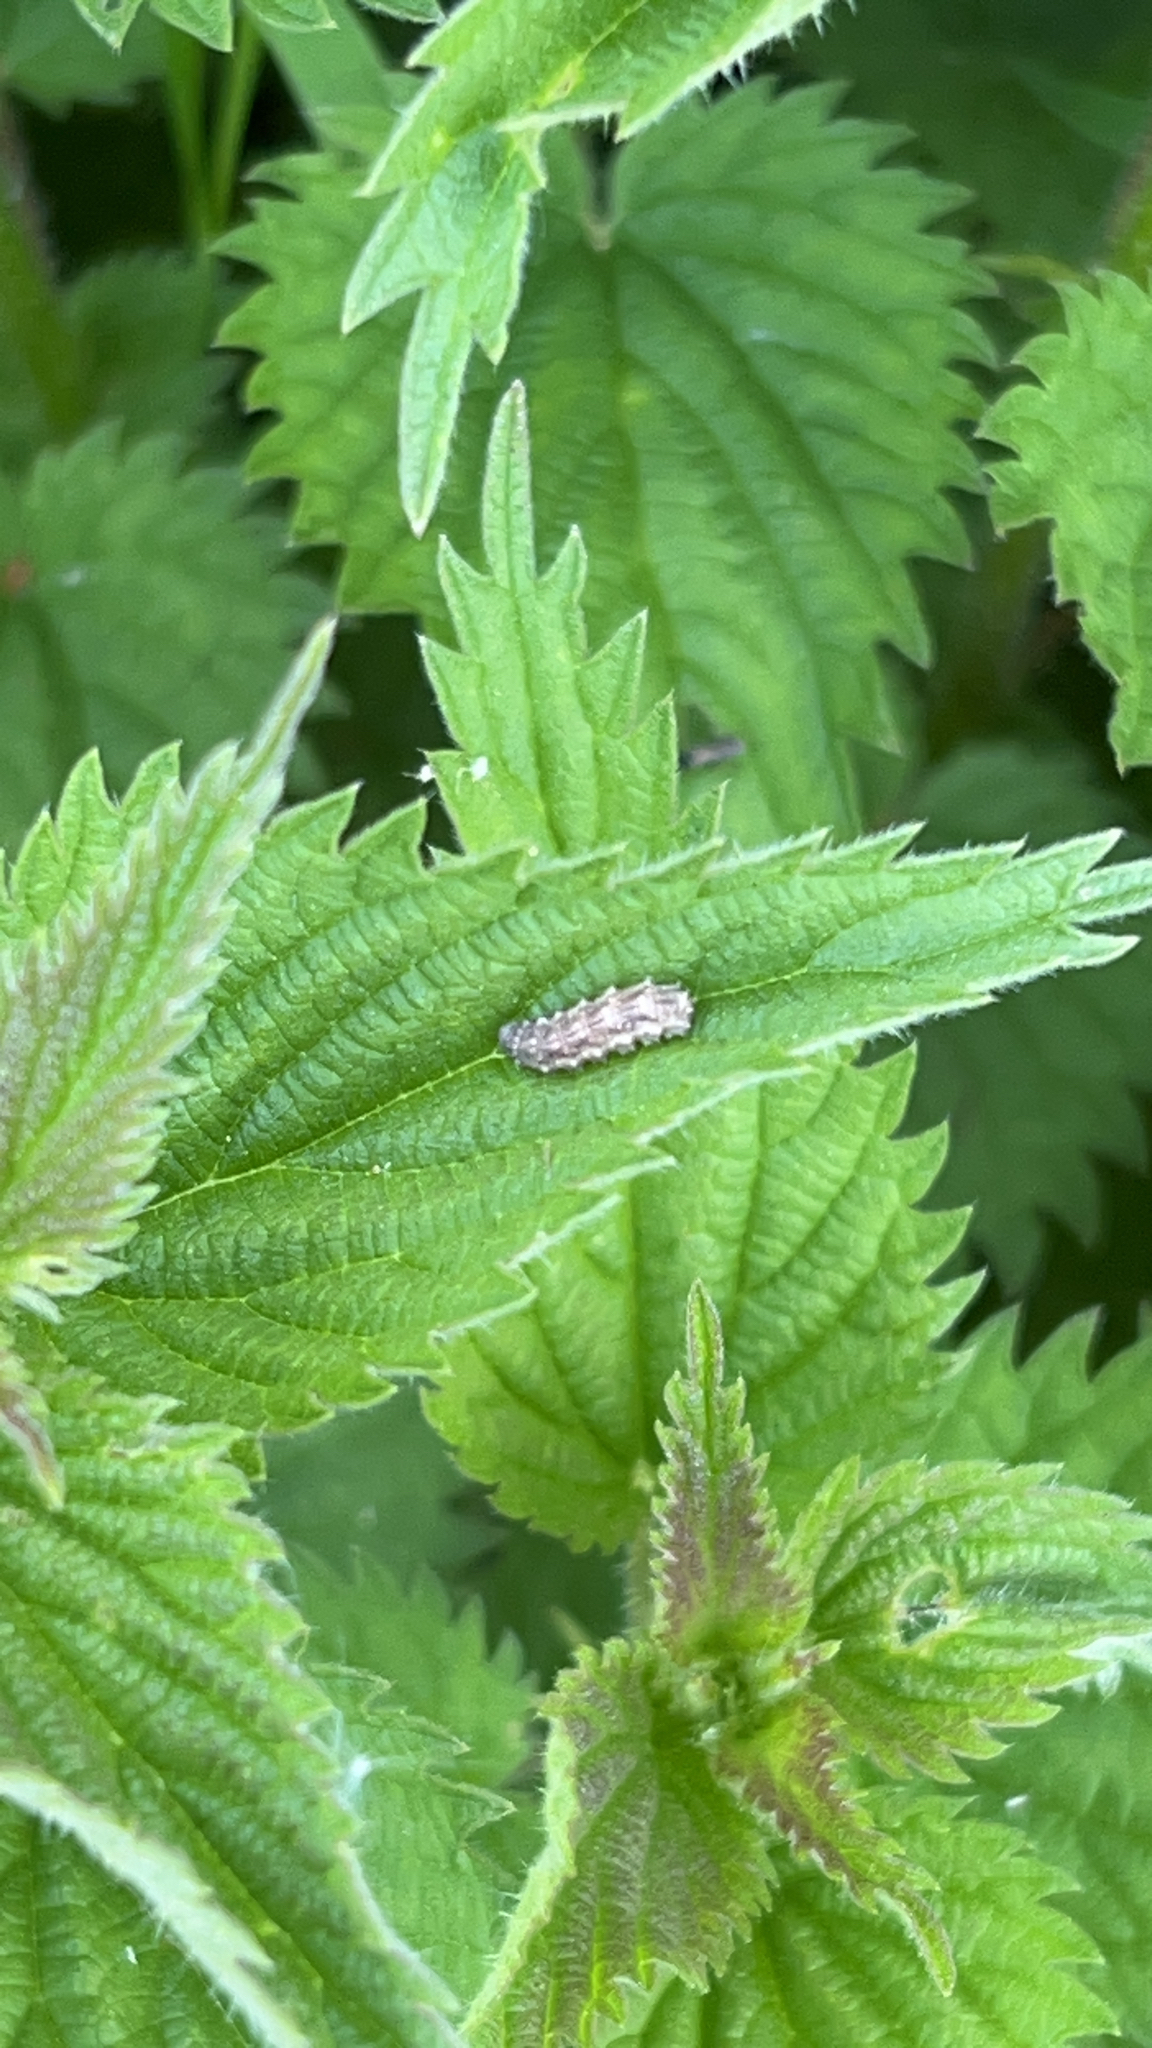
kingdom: Animalia
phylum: Arthropoda
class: Insecta
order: Diptera
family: Syrphidae
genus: Eupeodes
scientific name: Eupeodes
